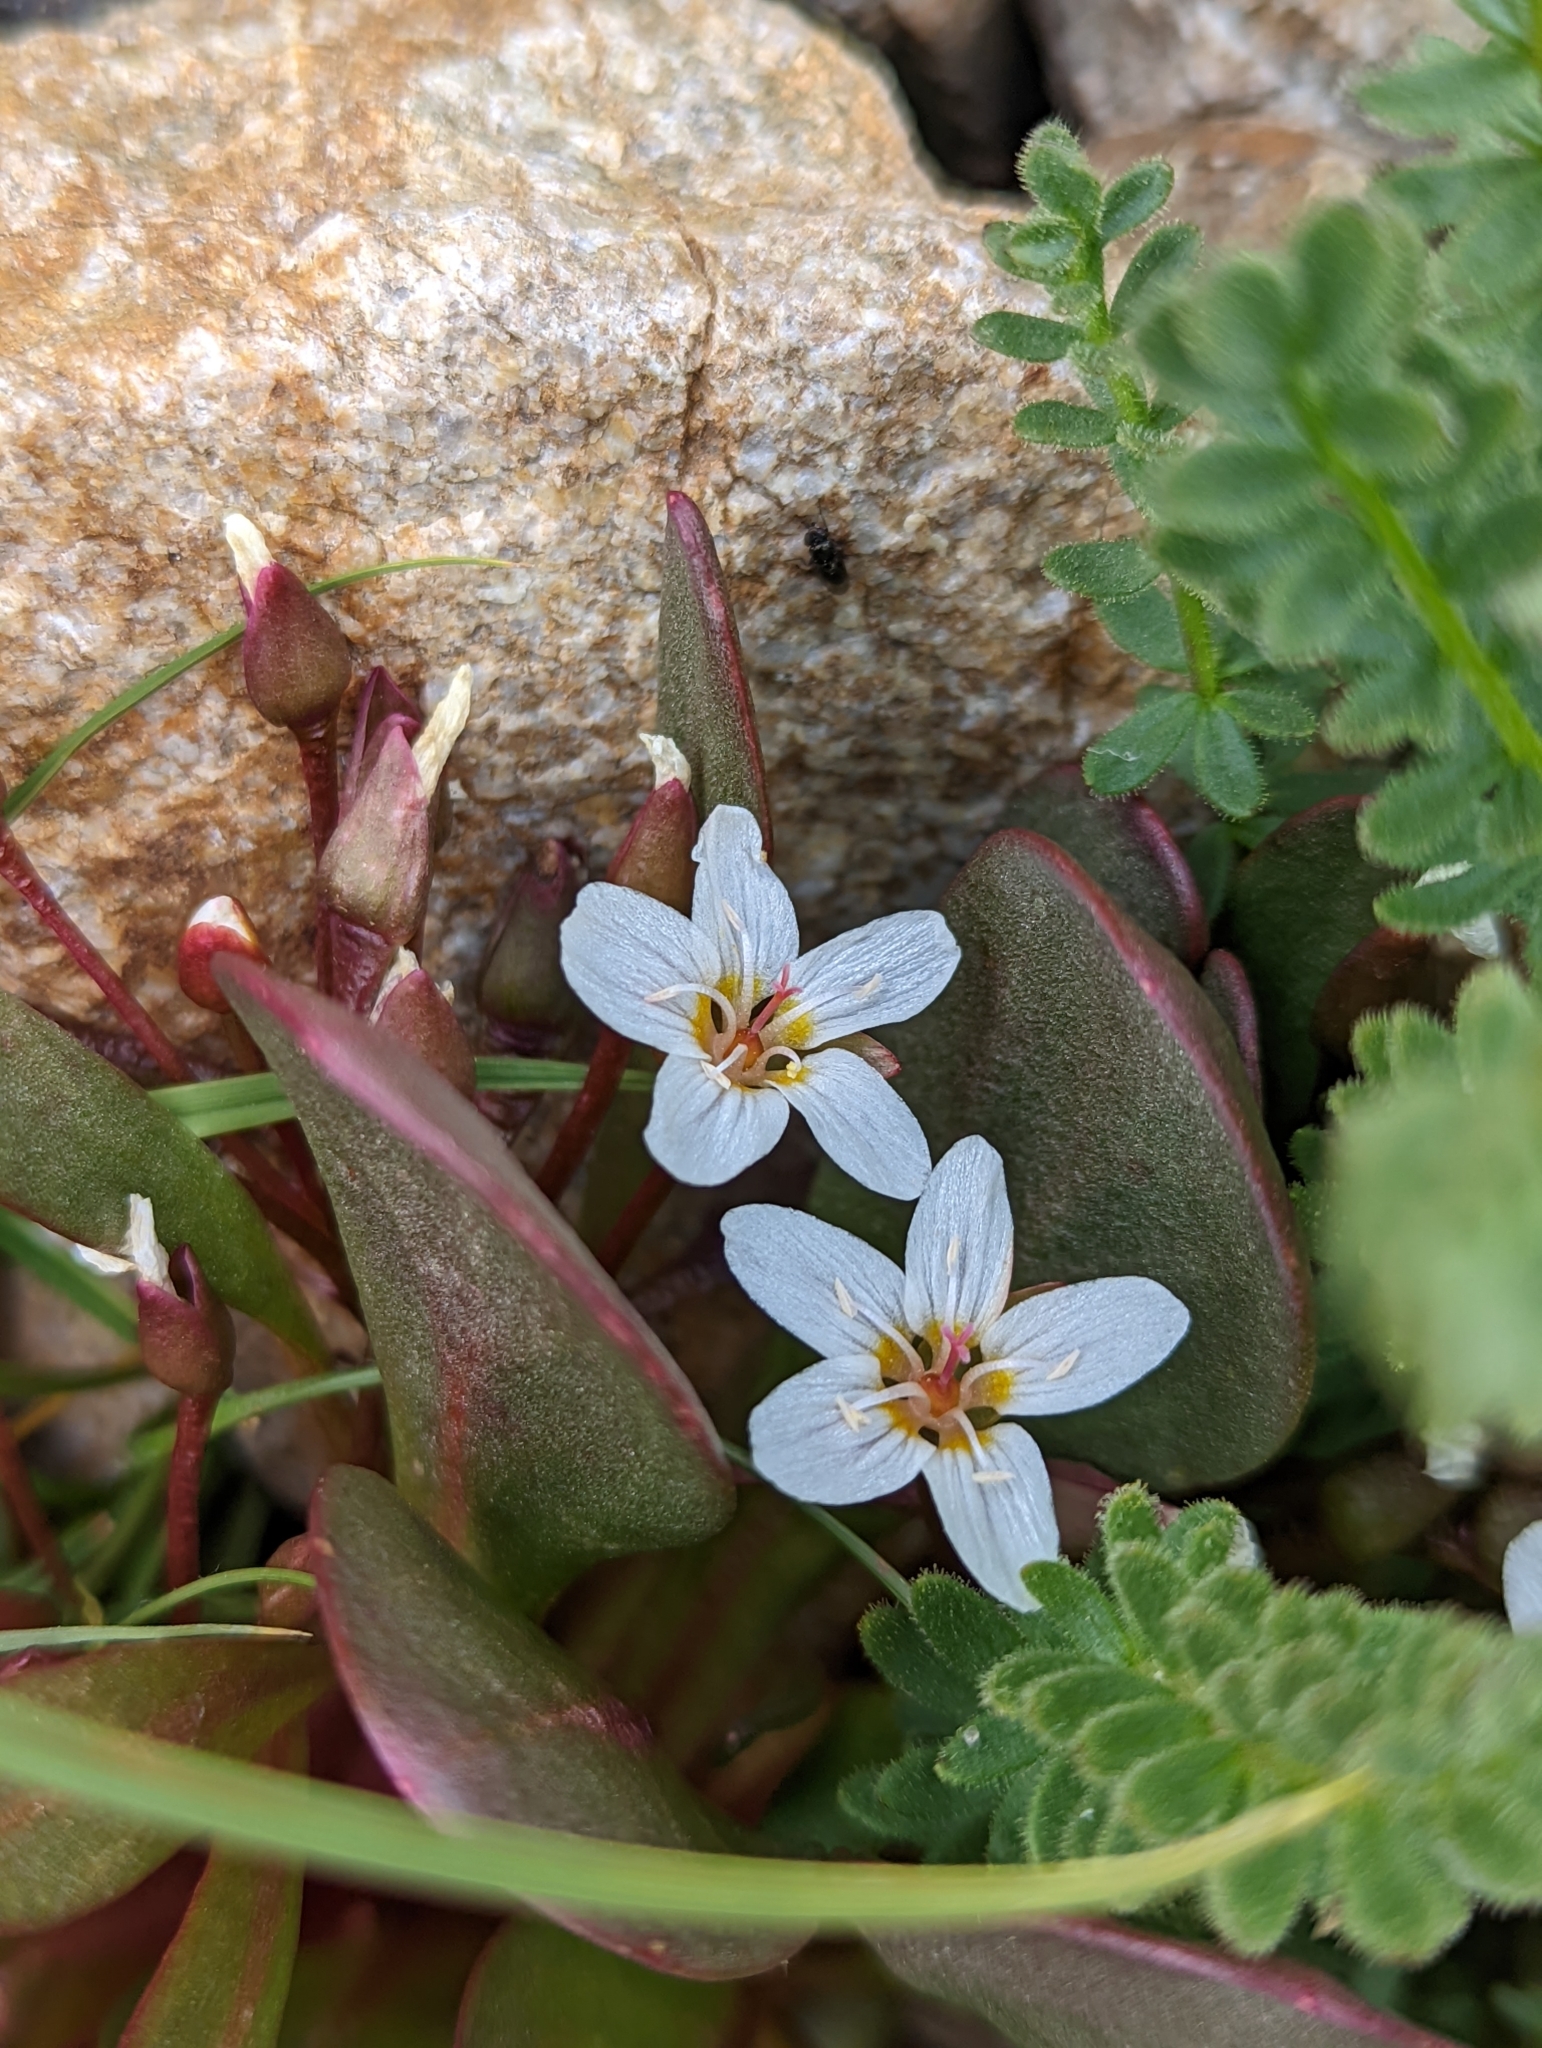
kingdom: Plantae
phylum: Tracheophyta
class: Magnoliopsida
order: Caryophyllales
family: Montiaceae
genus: Claytonia
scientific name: Claytonia megarhiza
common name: Alpine spring beauty
